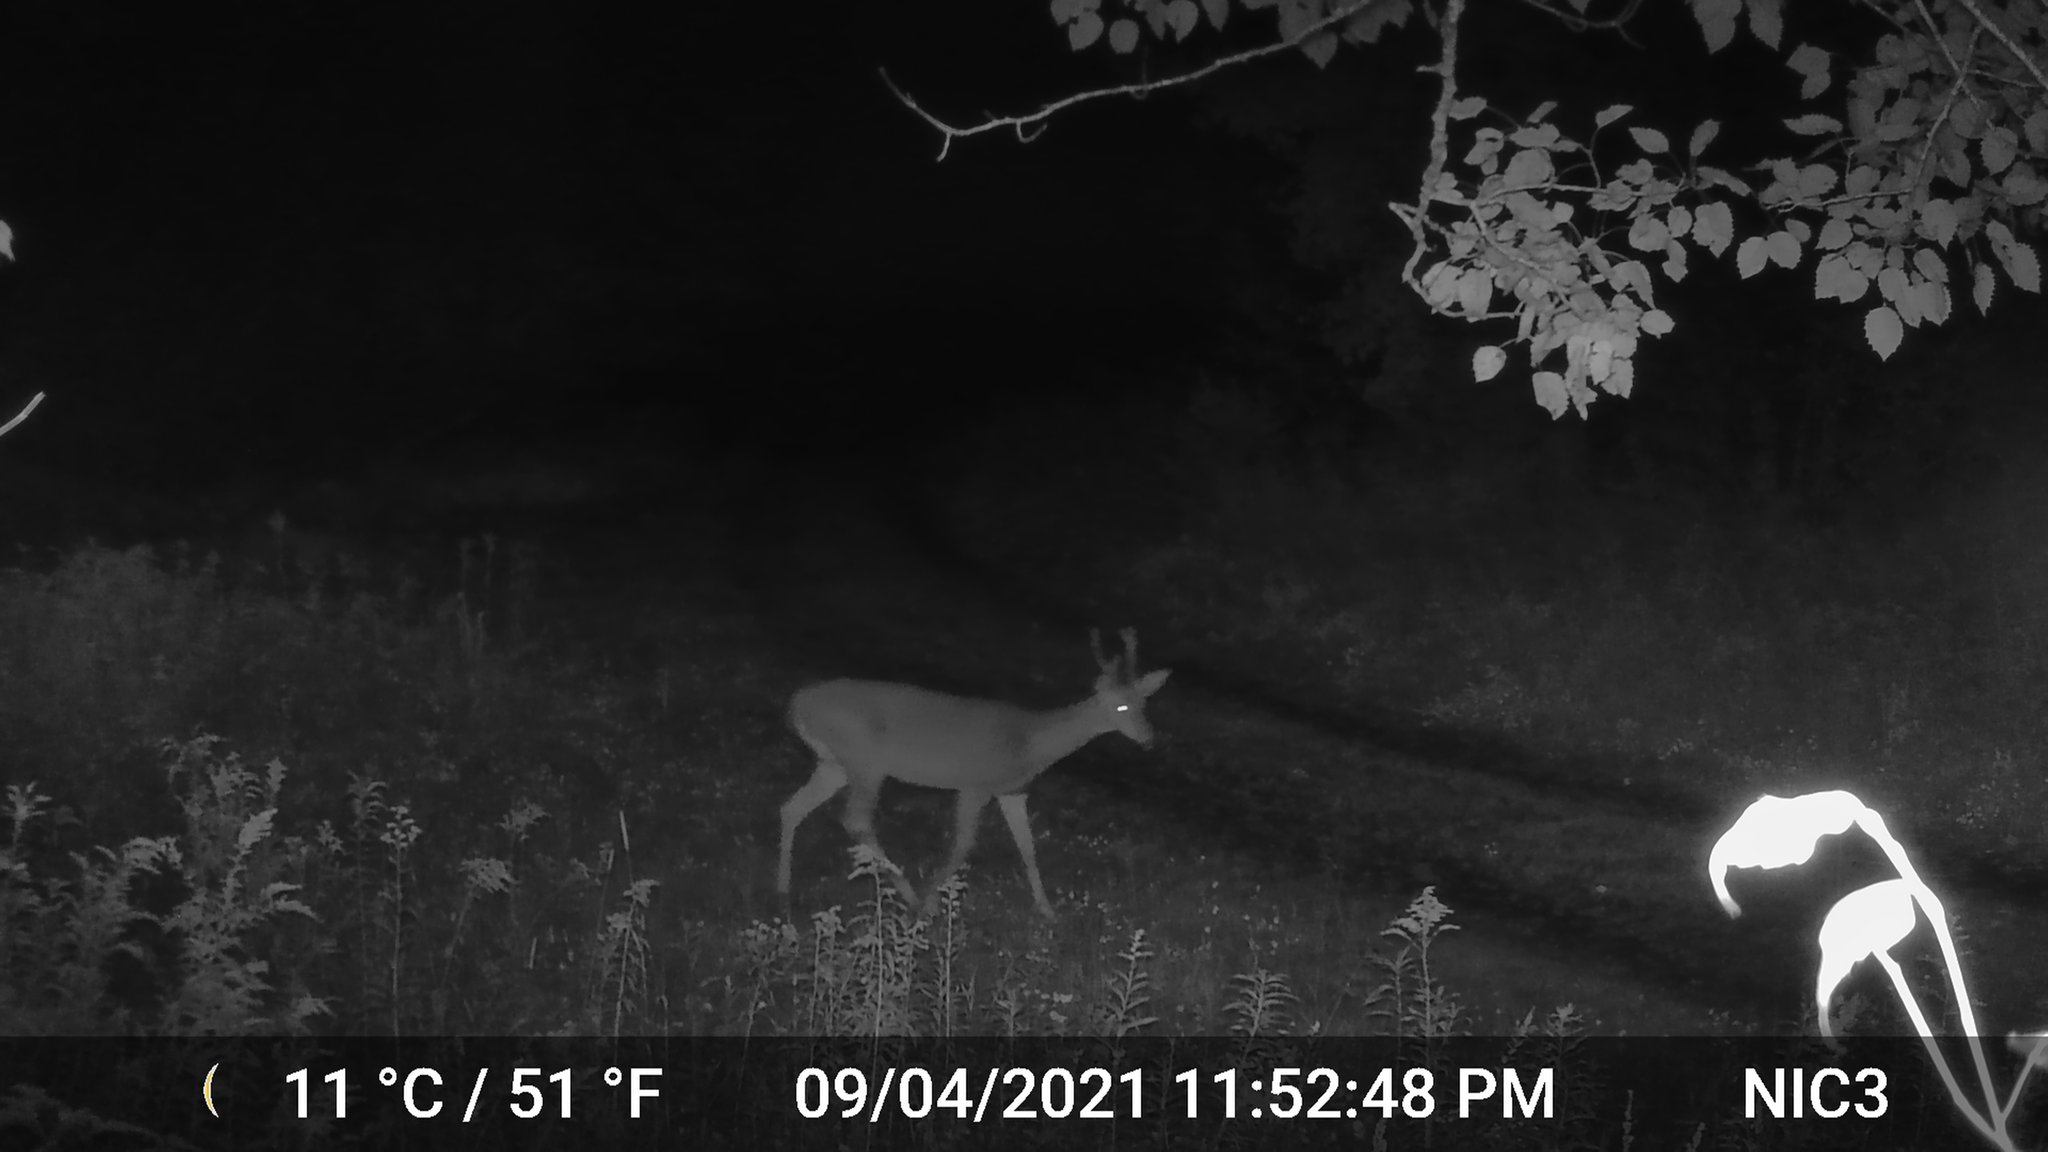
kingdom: Animalia
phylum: Chordata
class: Mammalia
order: Artiodactyla
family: Cervidae
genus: Odocoileus
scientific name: Odocoileus virginianus
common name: White-tailed deer
